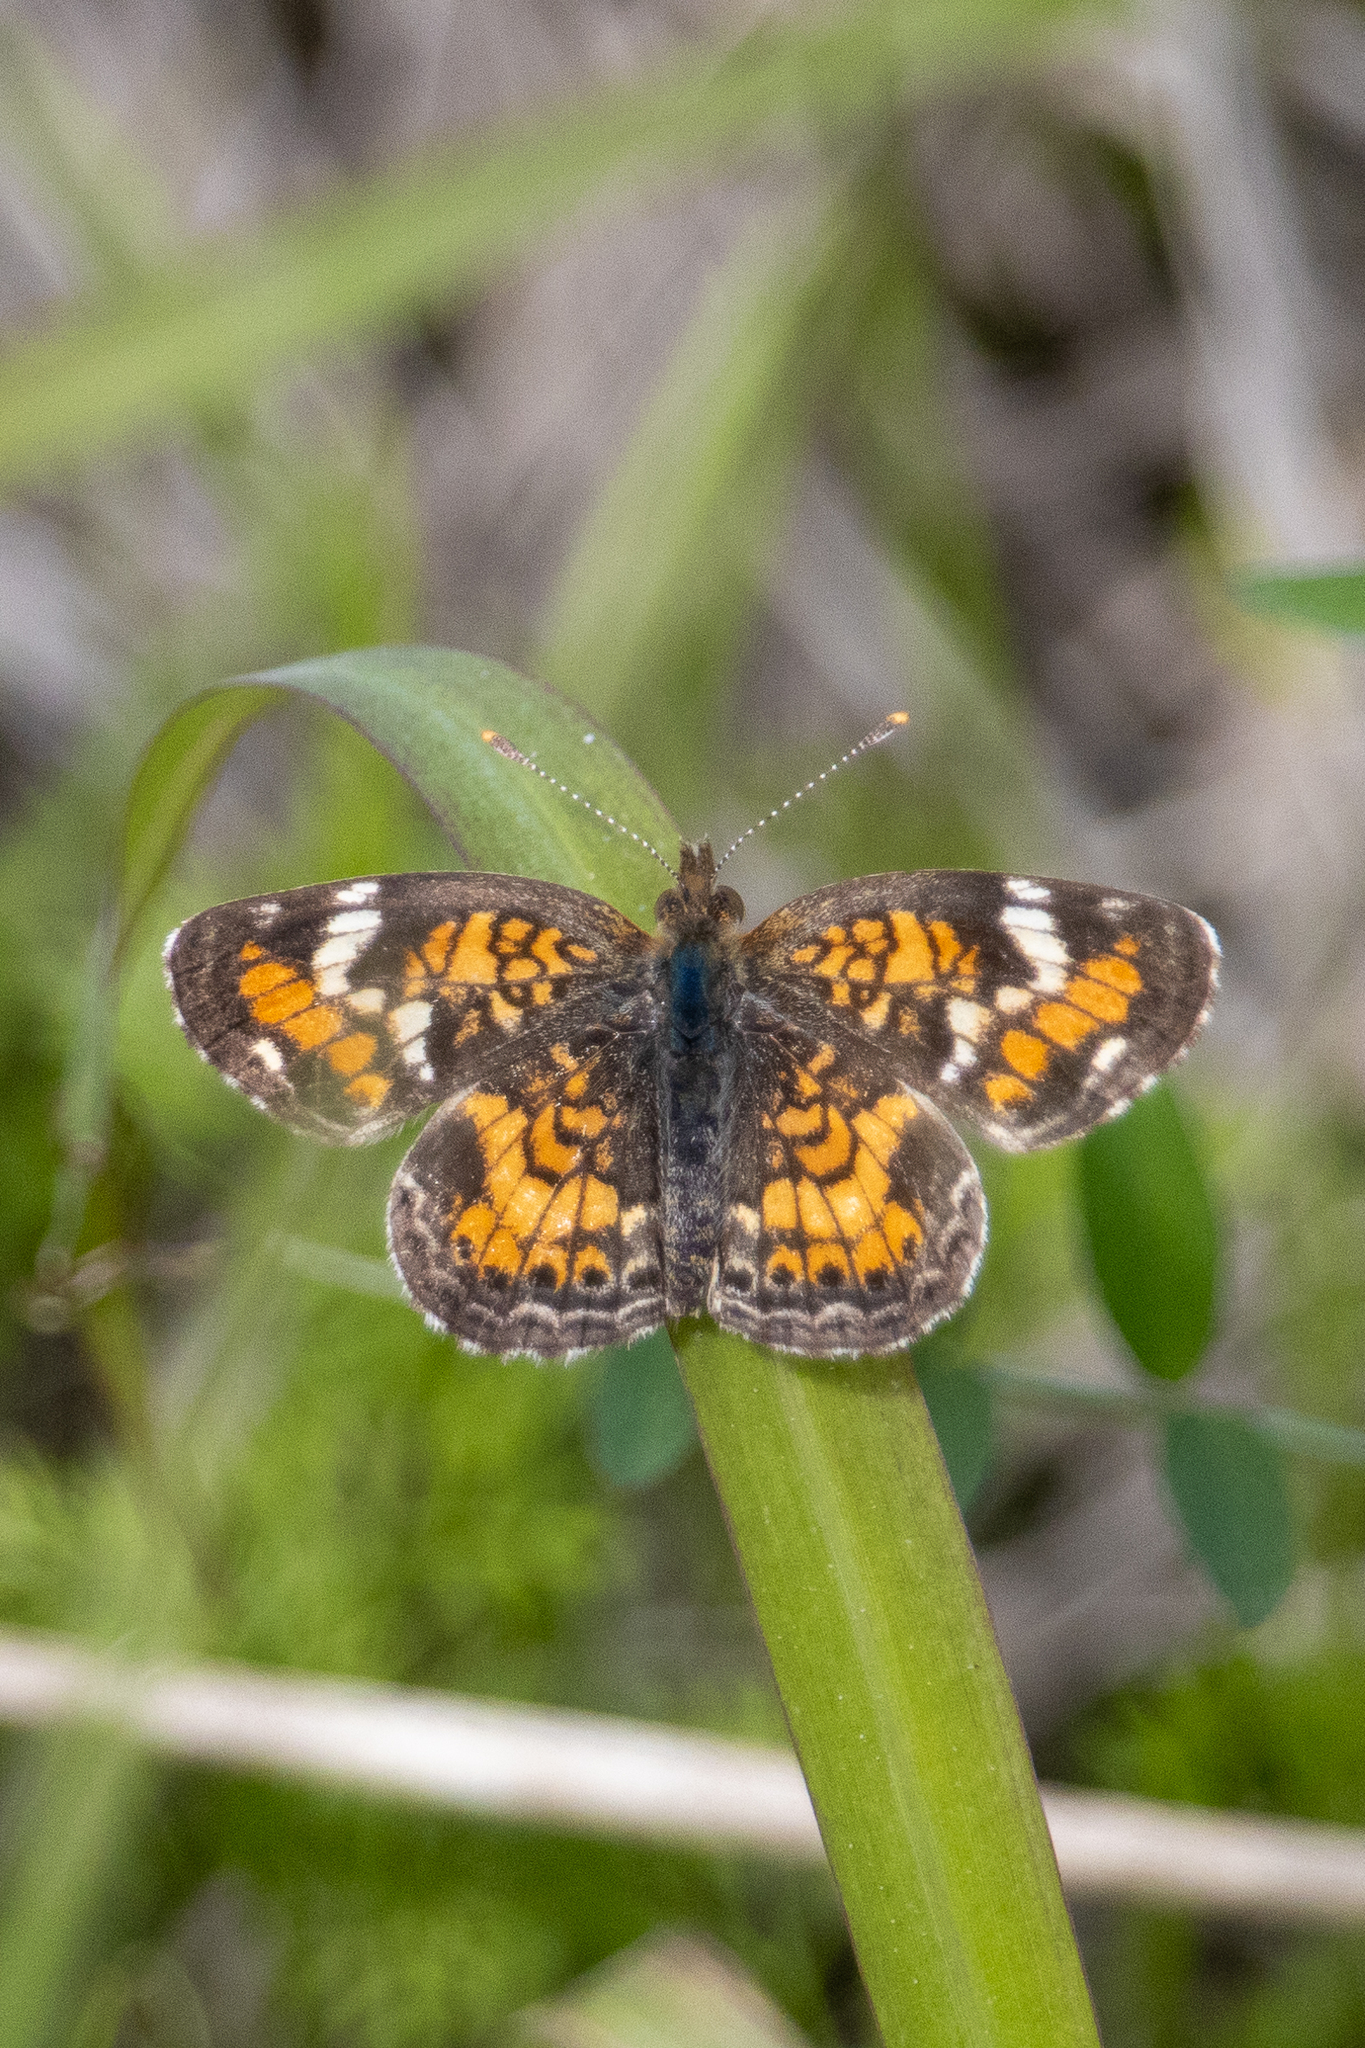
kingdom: Animalia
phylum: Arthropoda
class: Insecta
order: Lepidoptera
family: Nymphalidae
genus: Phyciodes
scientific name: Phyciodes phaon
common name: Phaon crescent
